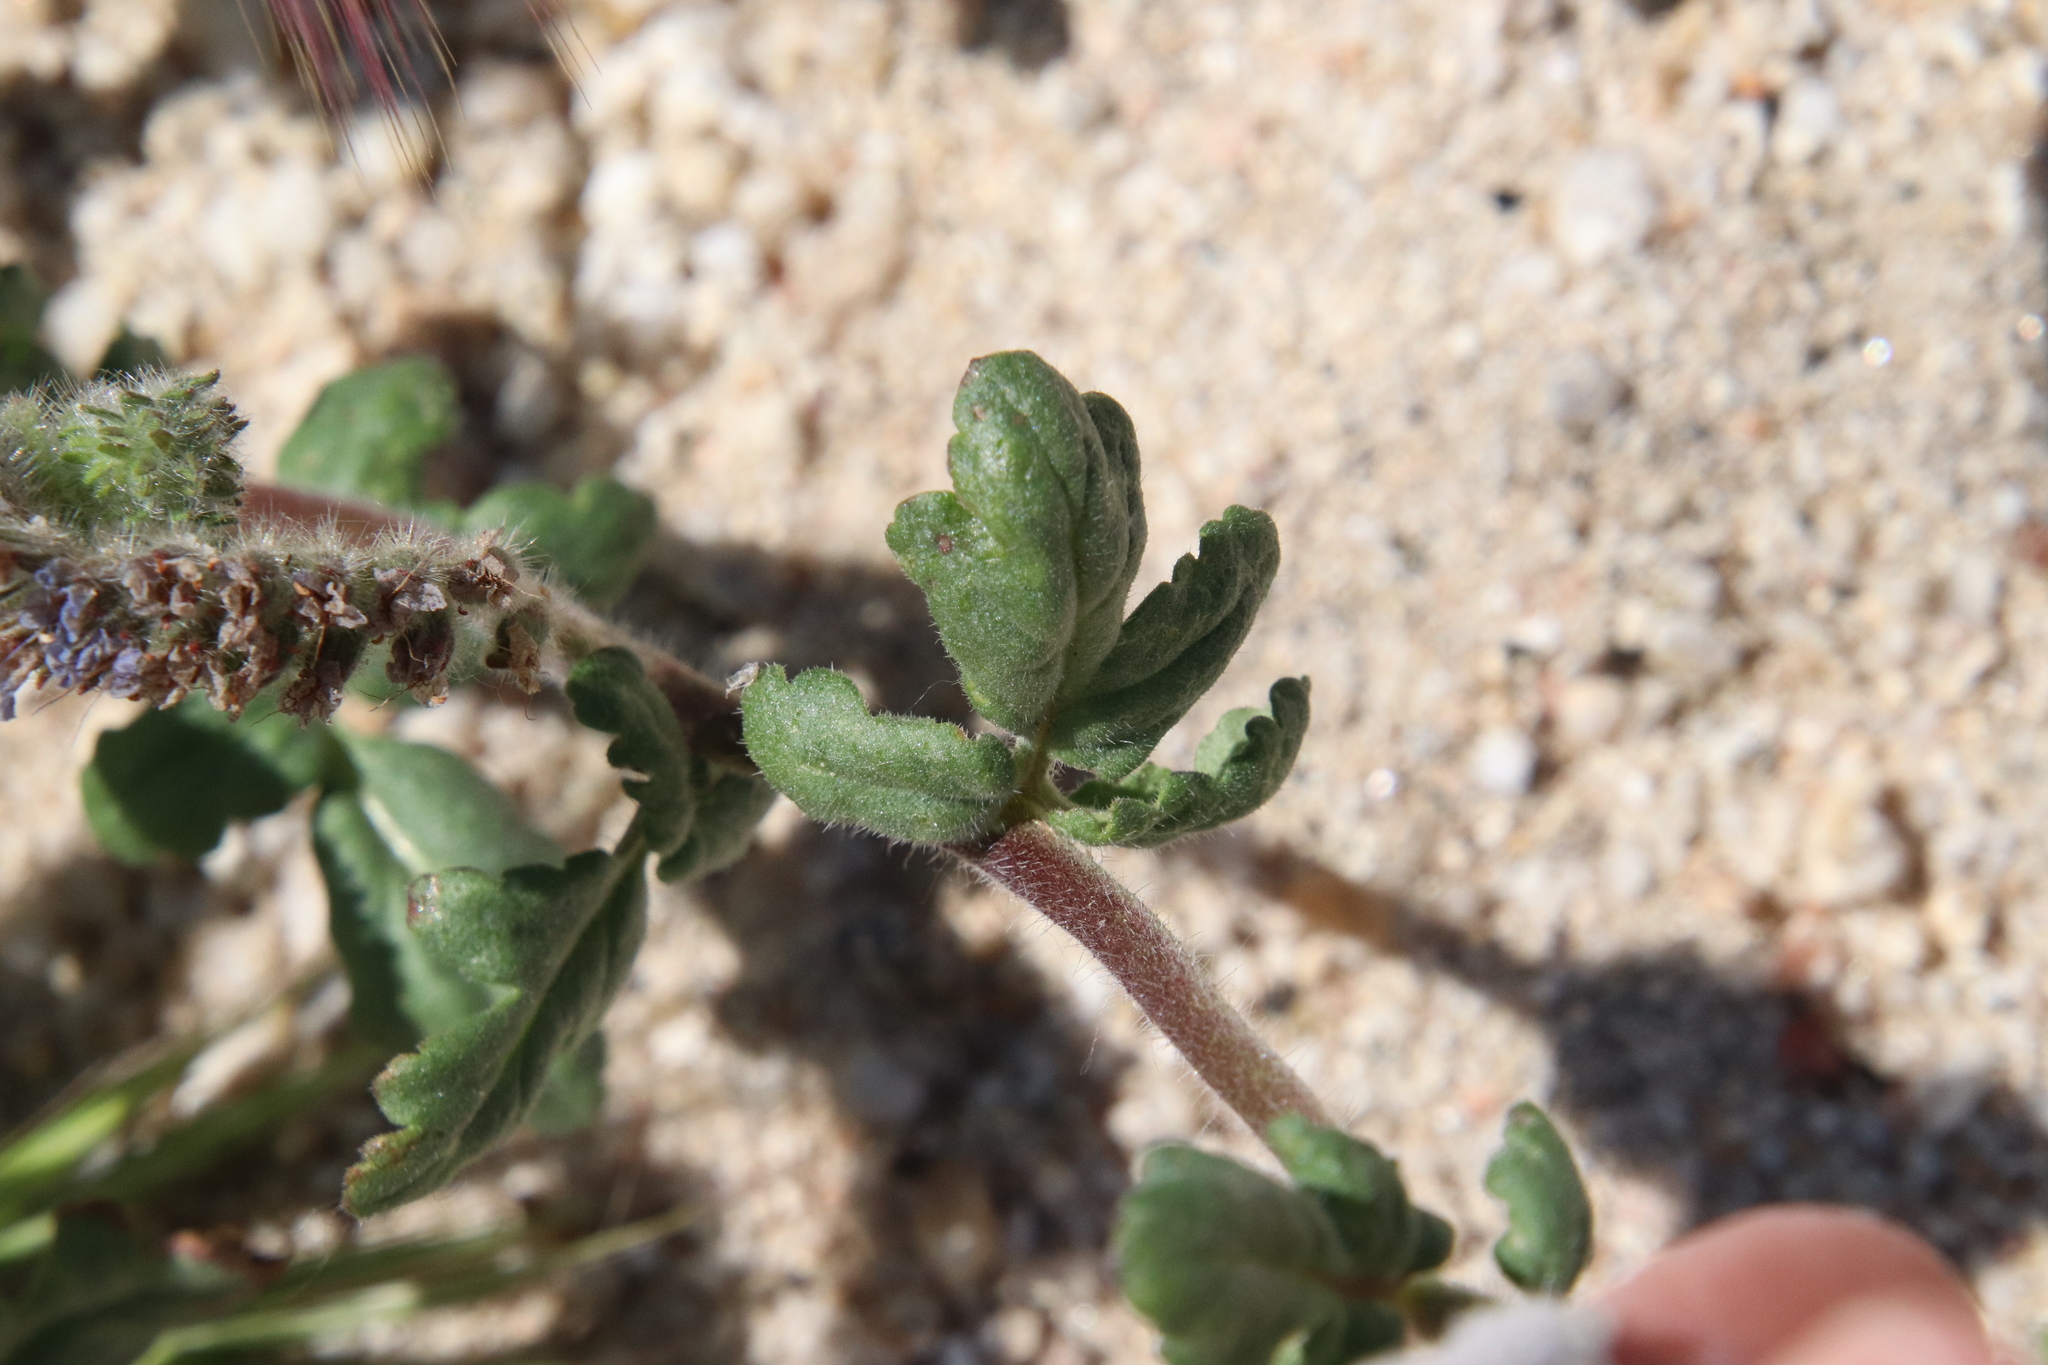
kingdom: Plantae
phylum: Tracheophyta
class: Magnoliopsida
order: Boraginales
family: Hydrophyllaceae
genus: Phacelia
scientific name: Phacelia distans
